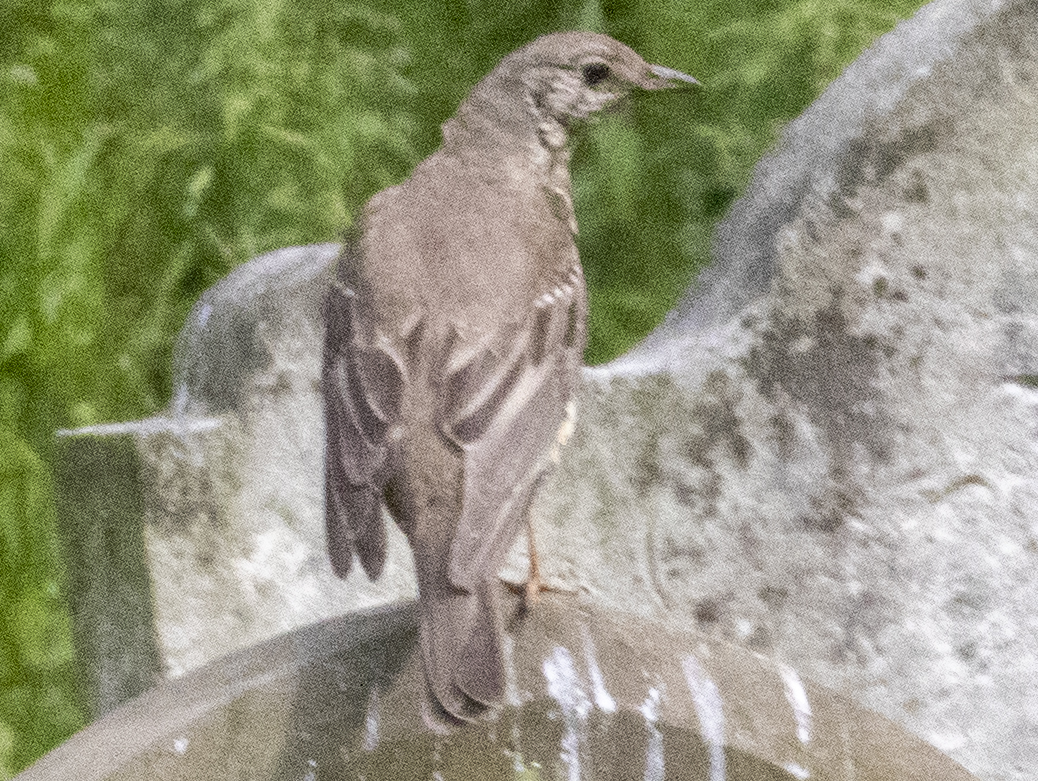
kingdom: Animalia
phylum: Chordata
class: Aves
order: Passeriformes
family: Turdidae
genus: Turdus
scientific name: Turdus viscivorus
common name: Mistle thrush
